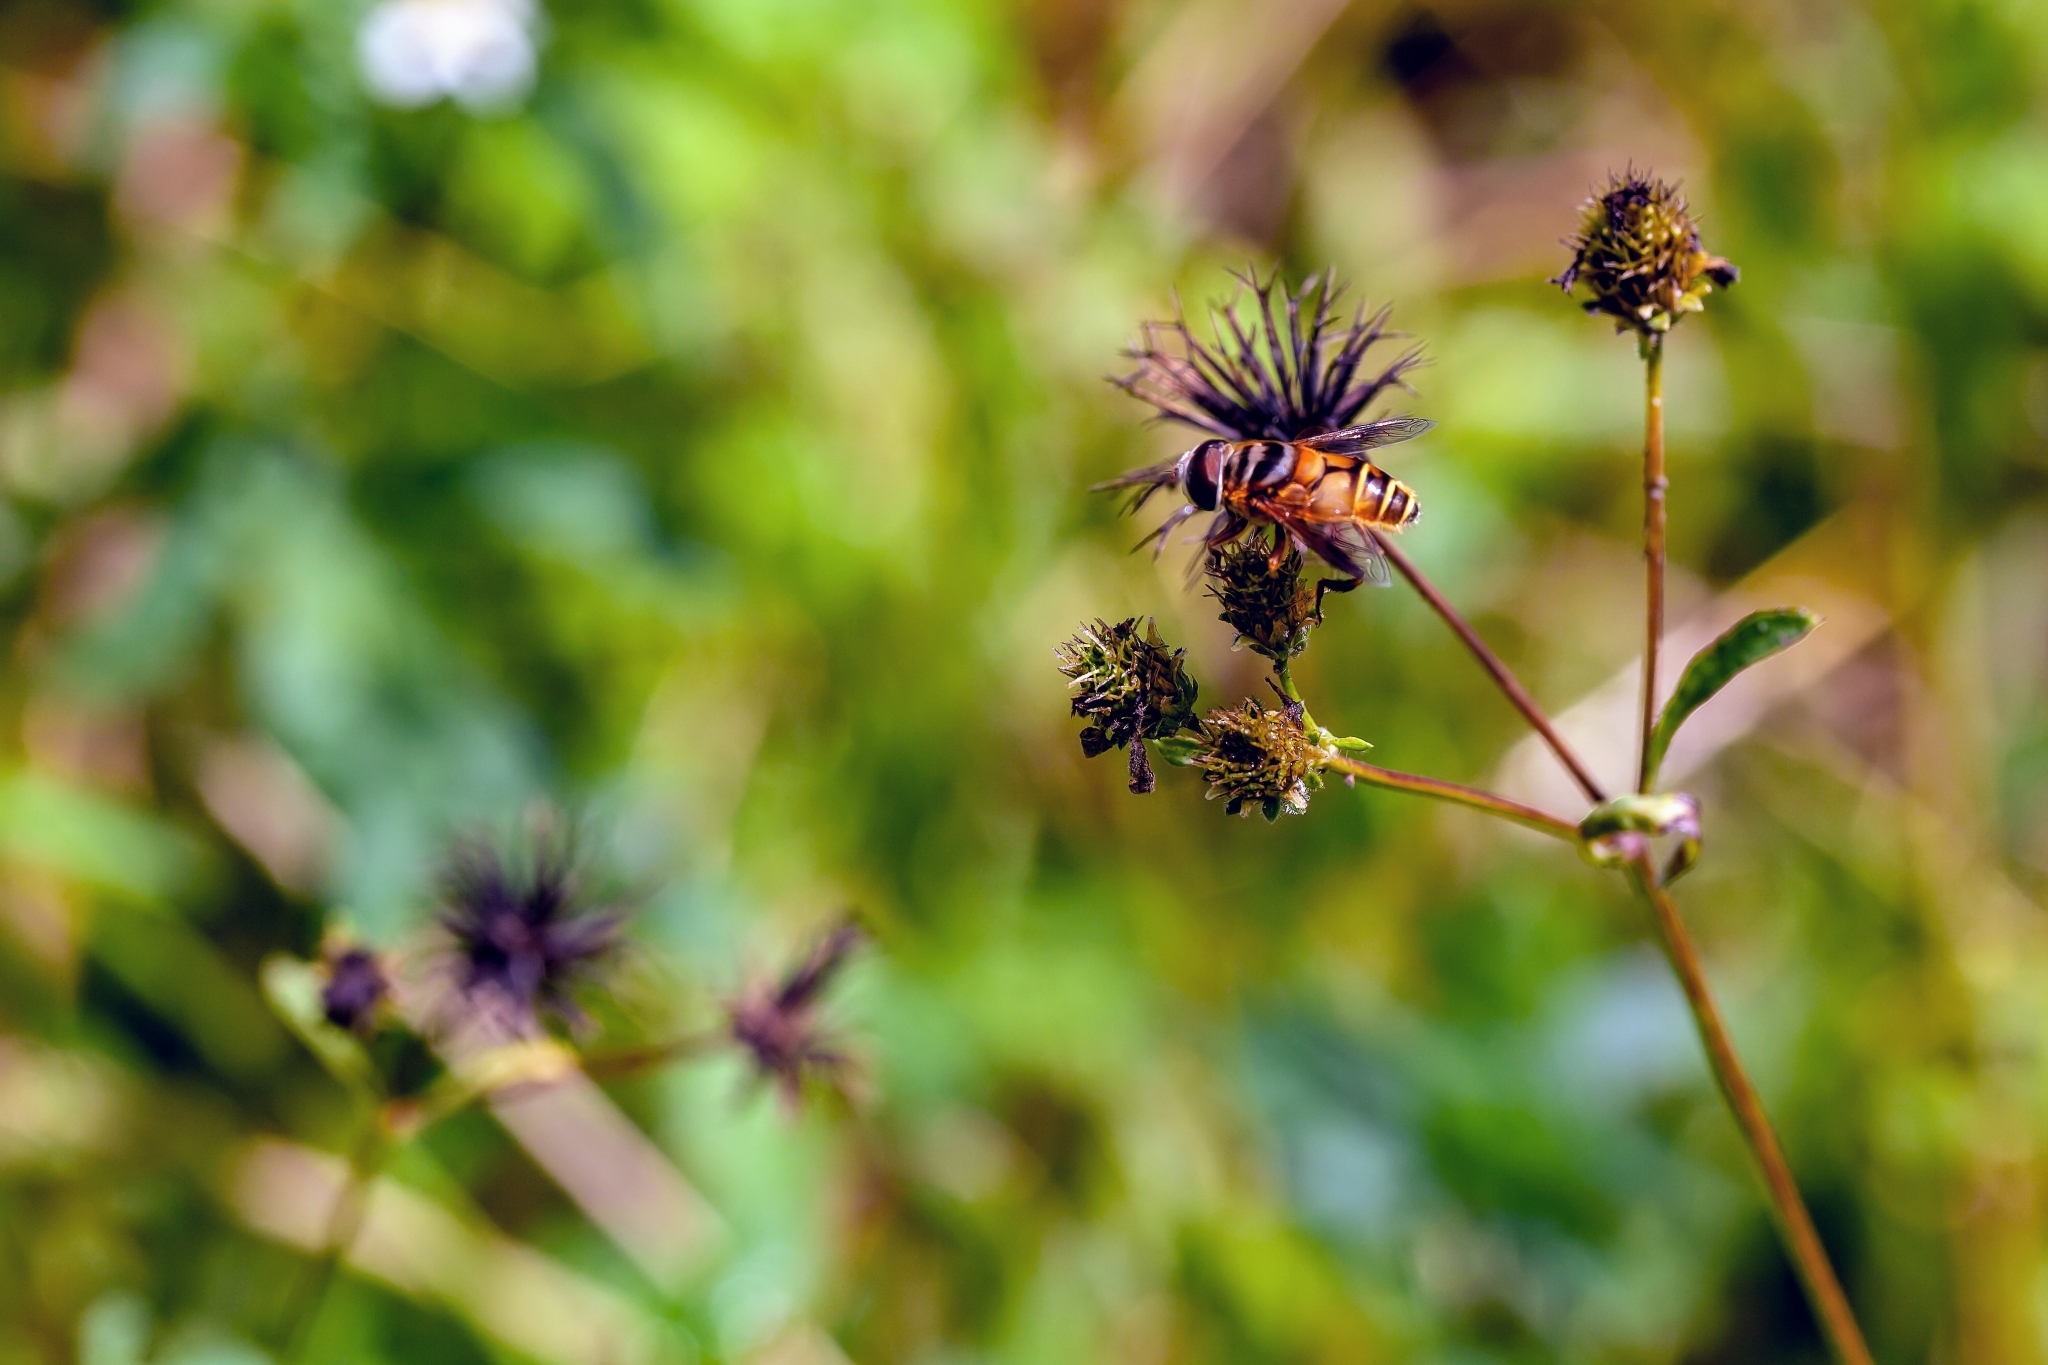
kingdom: Animalia
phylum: Arthropoda
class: Insecta
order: Diptera
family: Syrphidae
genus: Palpada
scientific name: Palpada vinetorum
